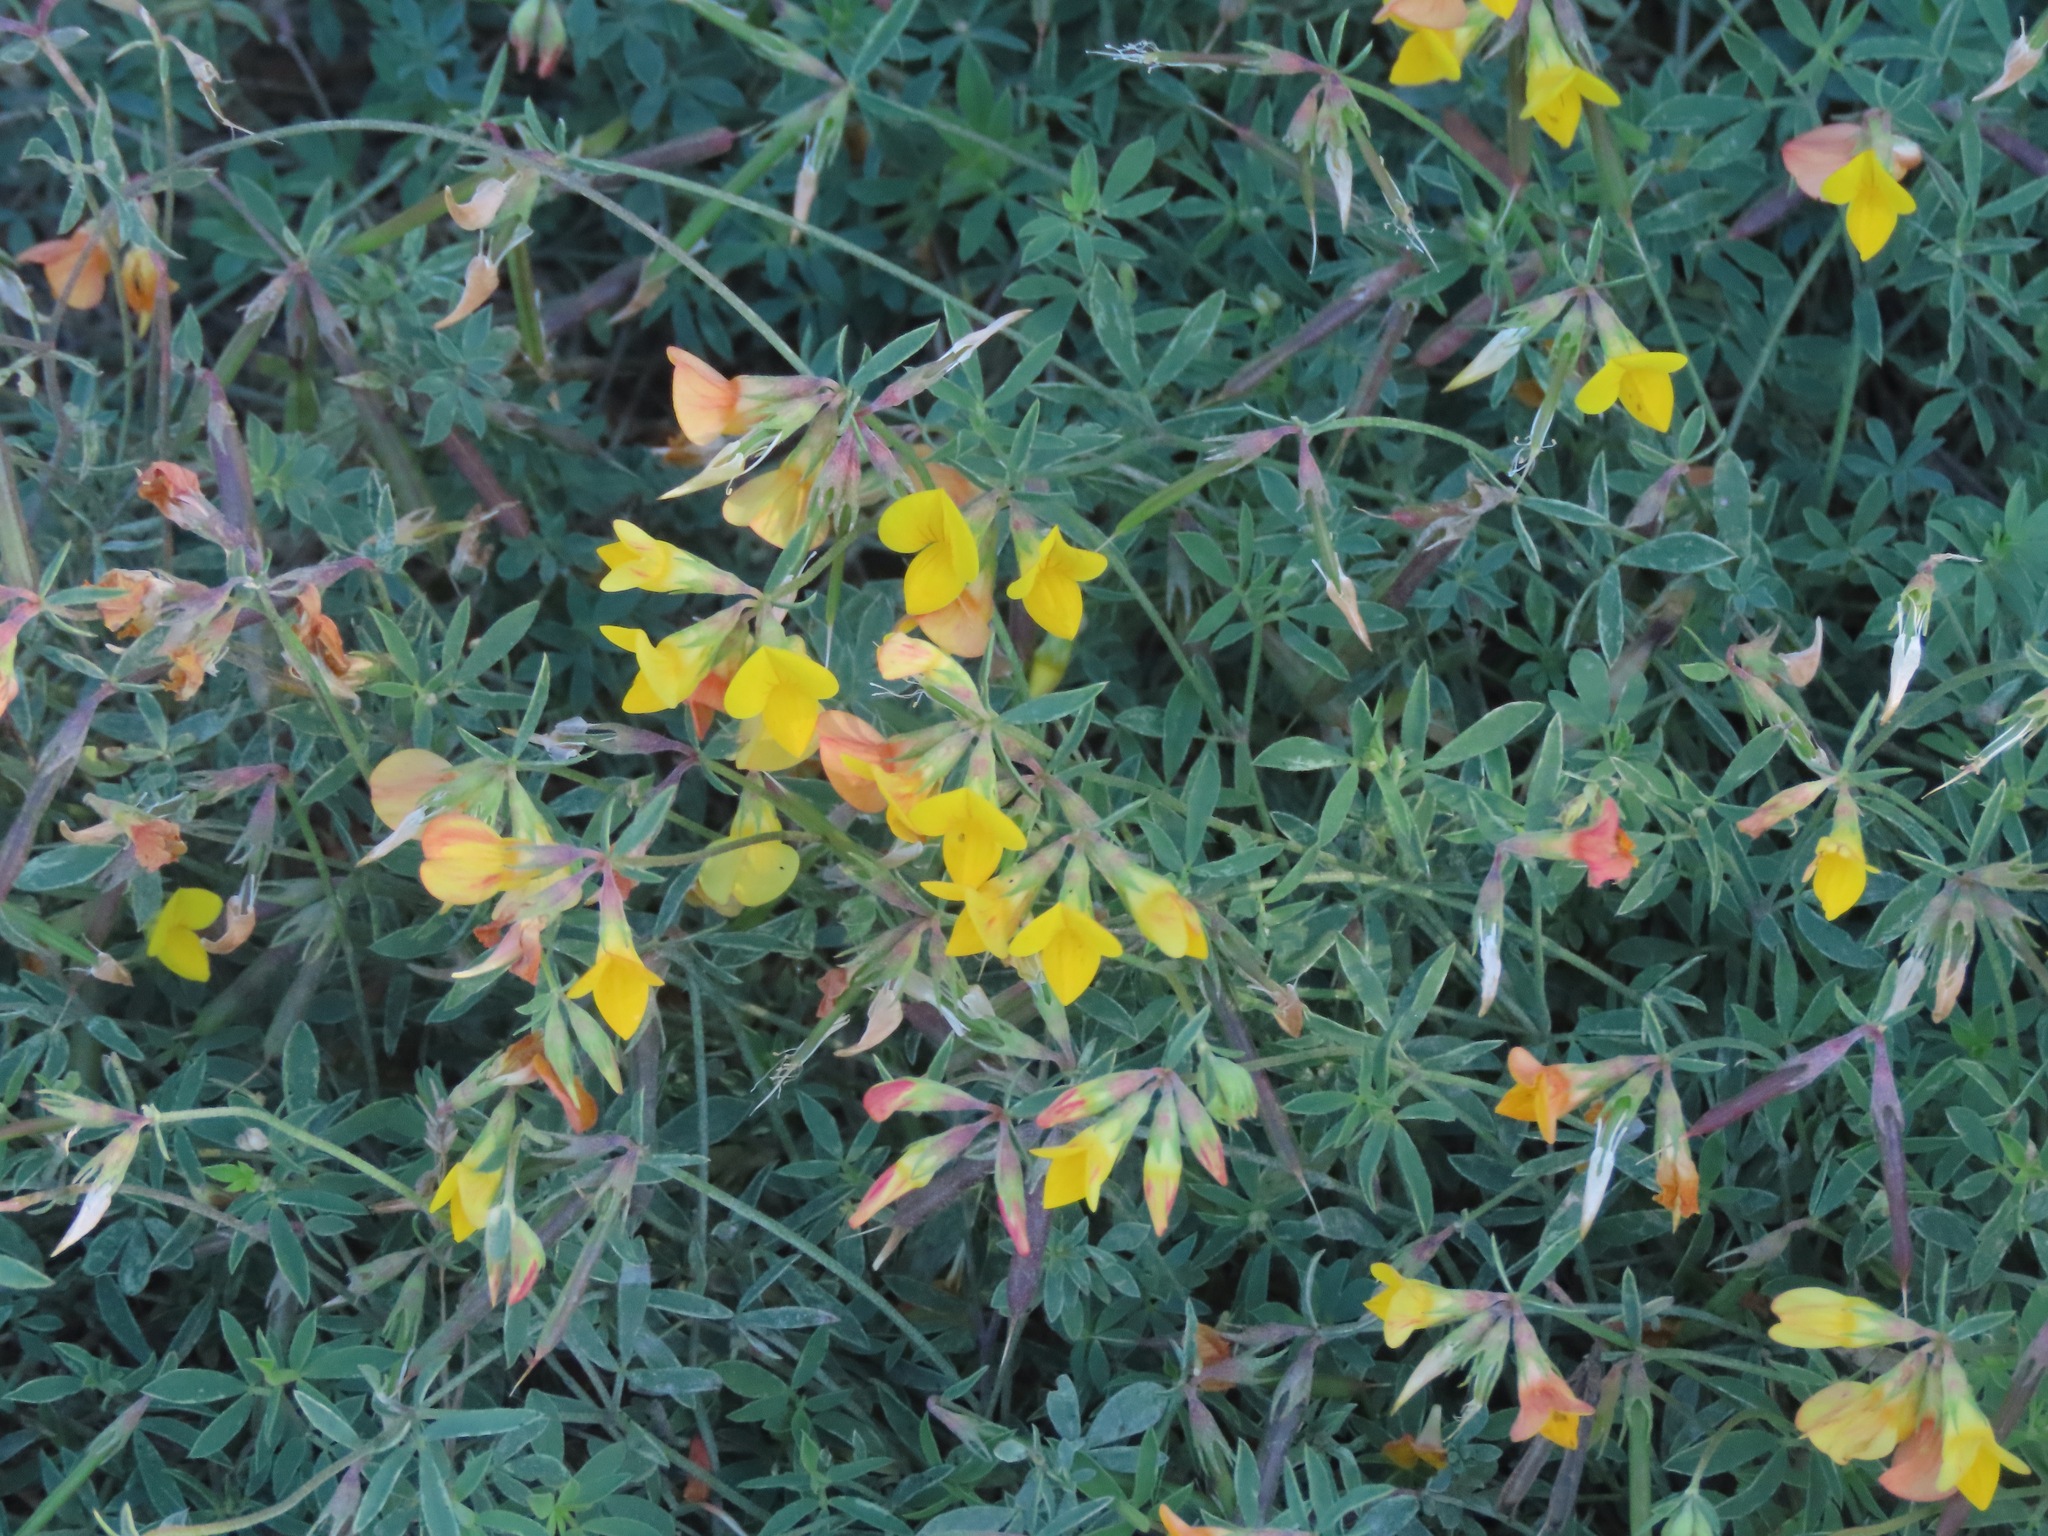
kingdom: Plantae
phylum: Tracheophyta
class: Magnoliopsida
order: Fabales
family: Fabaceae
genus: Lotus
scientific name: Lotus tenuis
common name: Narrow-leaved bird's-foot-trefoil
